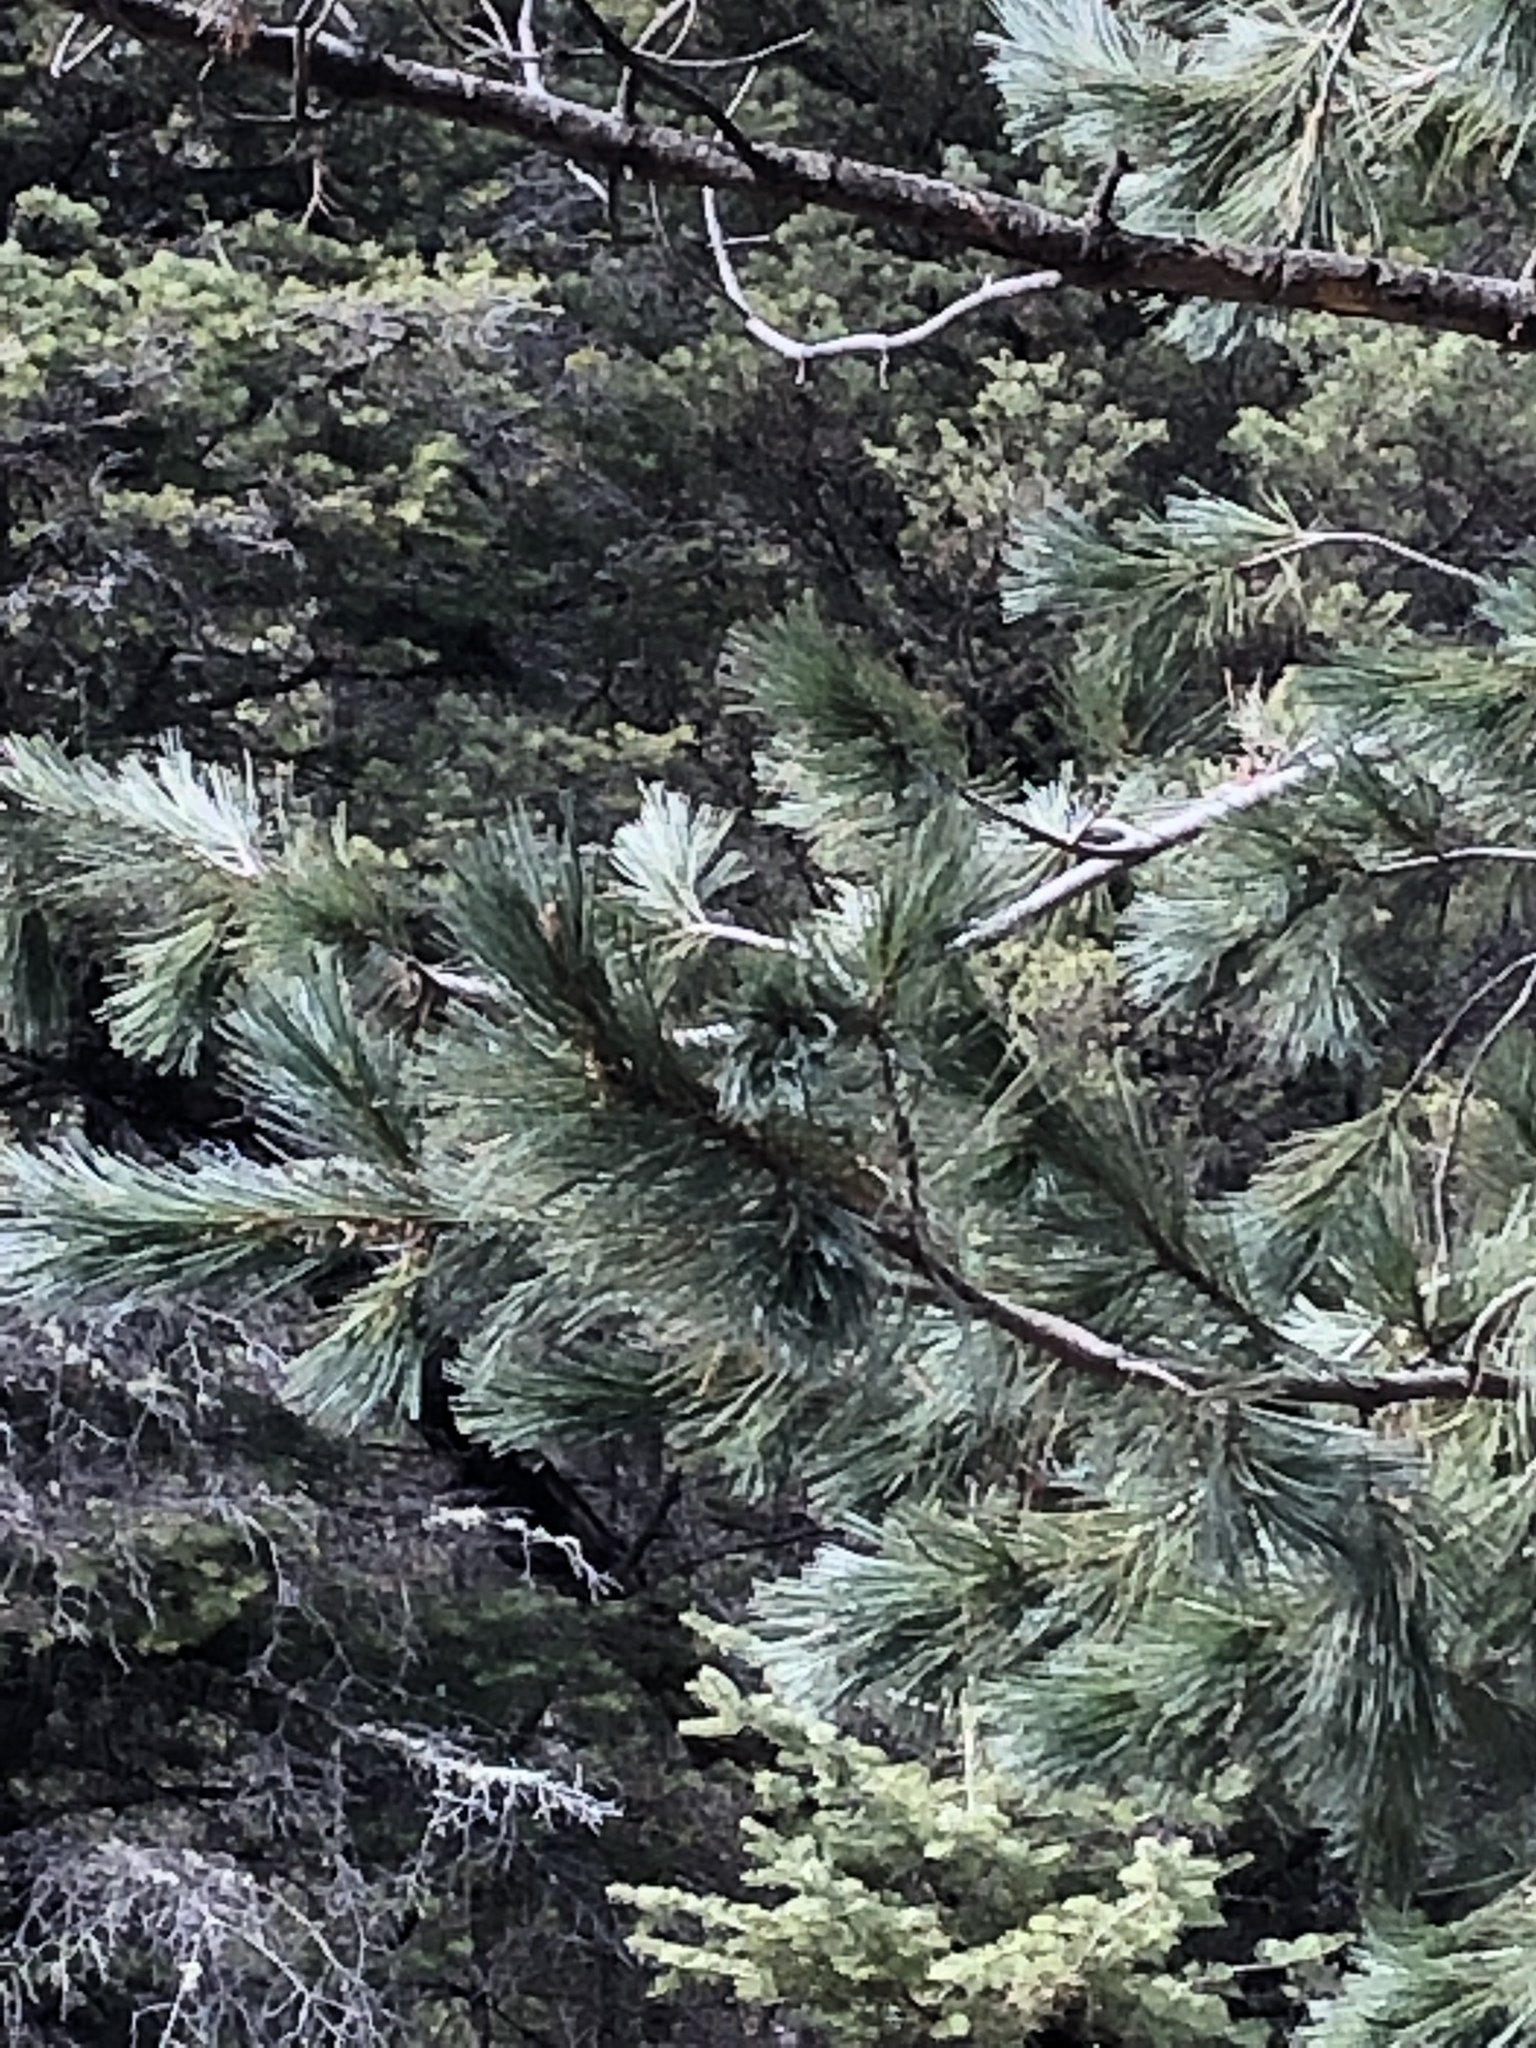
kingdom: Plantae
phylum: Tracheophyta
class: Pinopsida
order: Pinales
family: Pinaceae
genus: Pinus
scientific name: Pinus strobiformis
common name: Southwestern white pine
